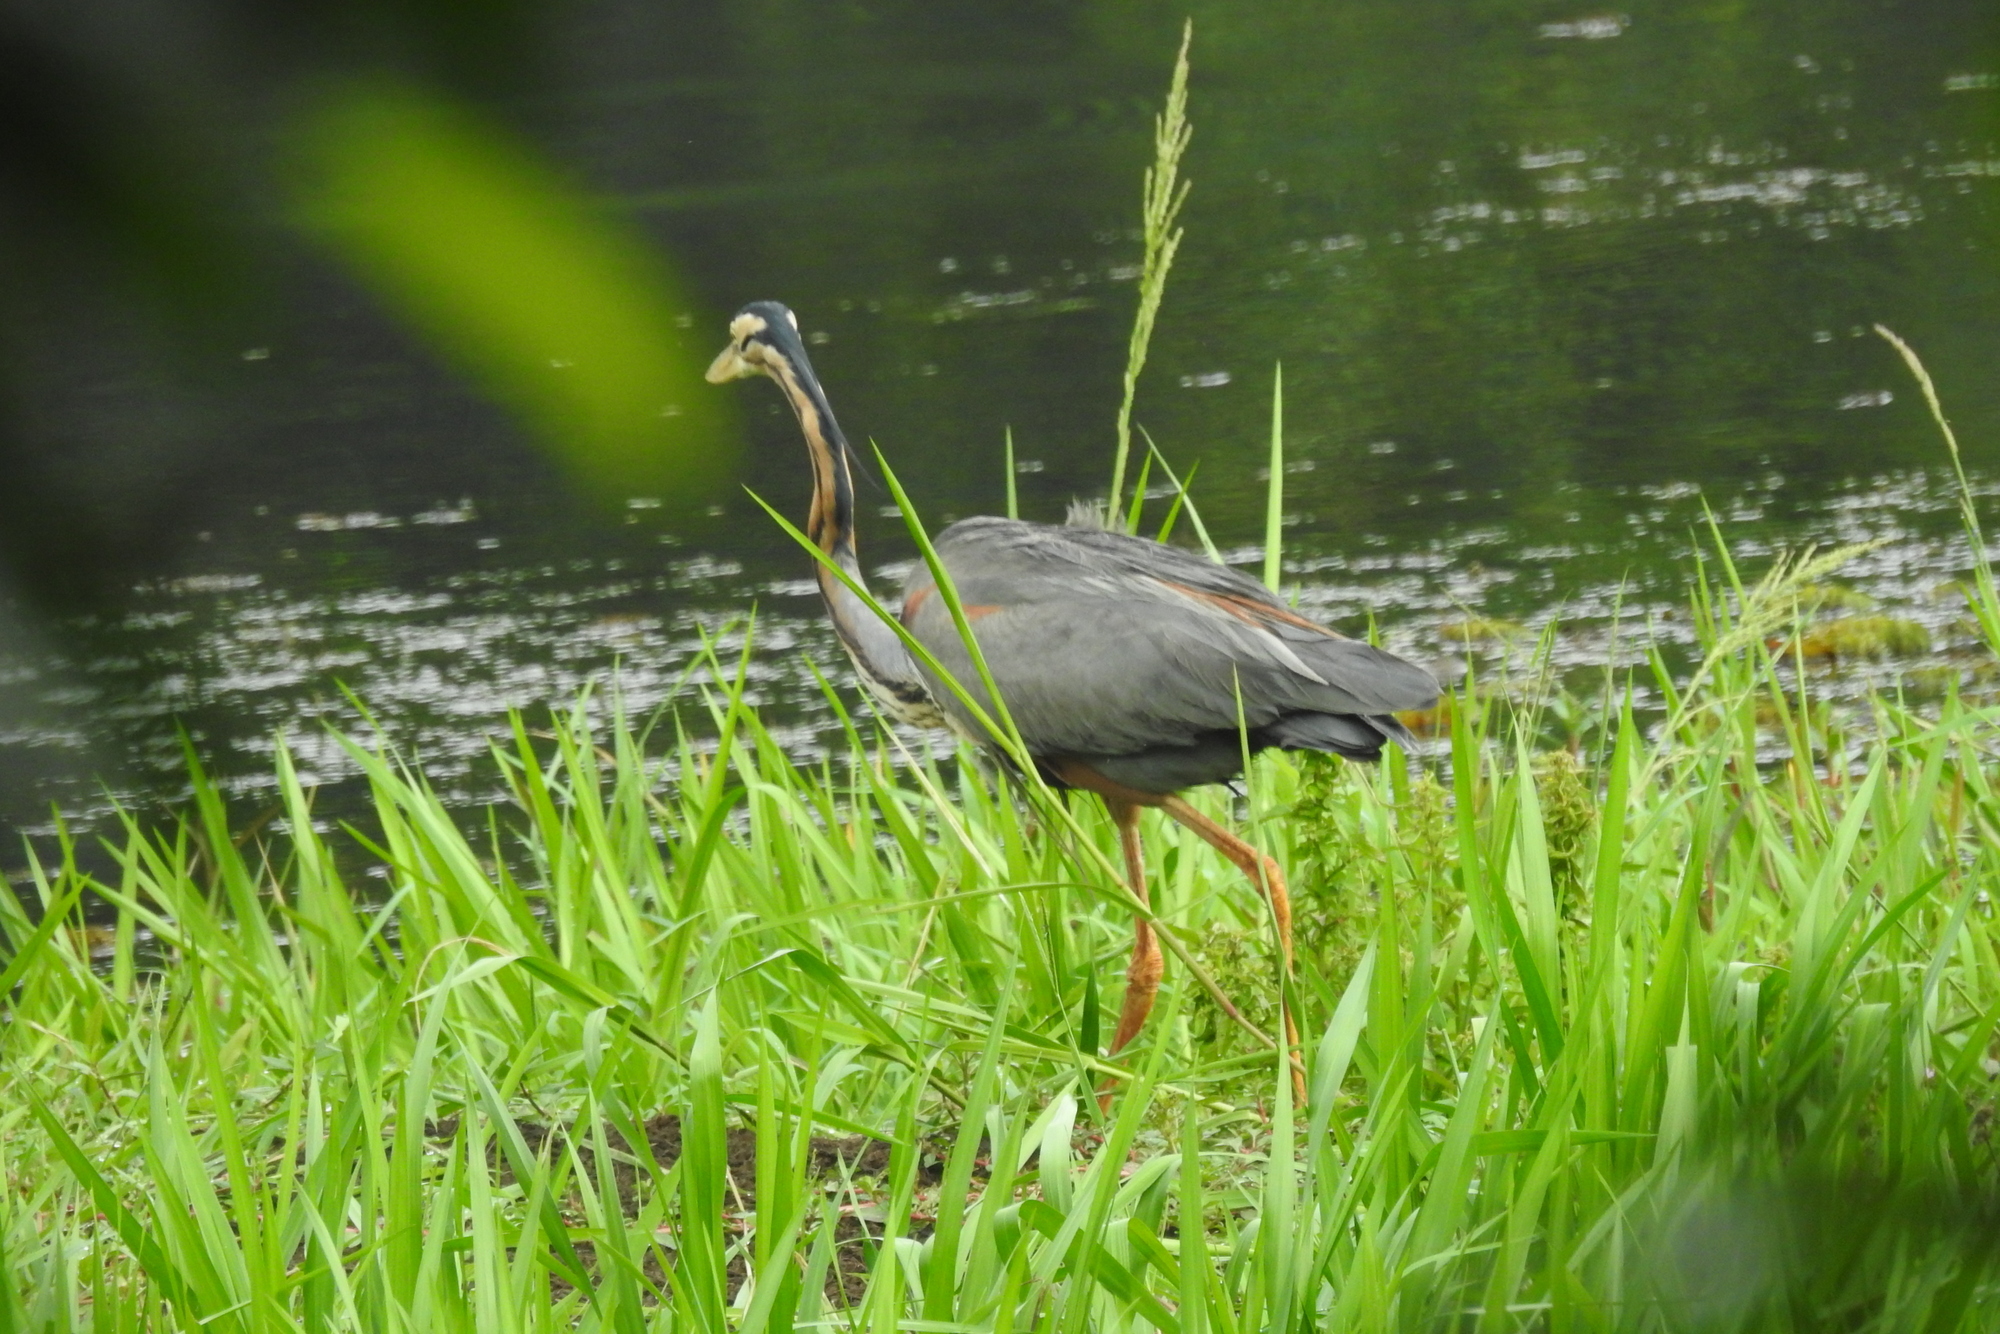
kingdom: Animalia
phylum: Chordata
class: Aves
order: Pelecaniformes
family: Ardeidae
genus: Ardea
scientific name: Ardea purpurea
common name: Purple heron
